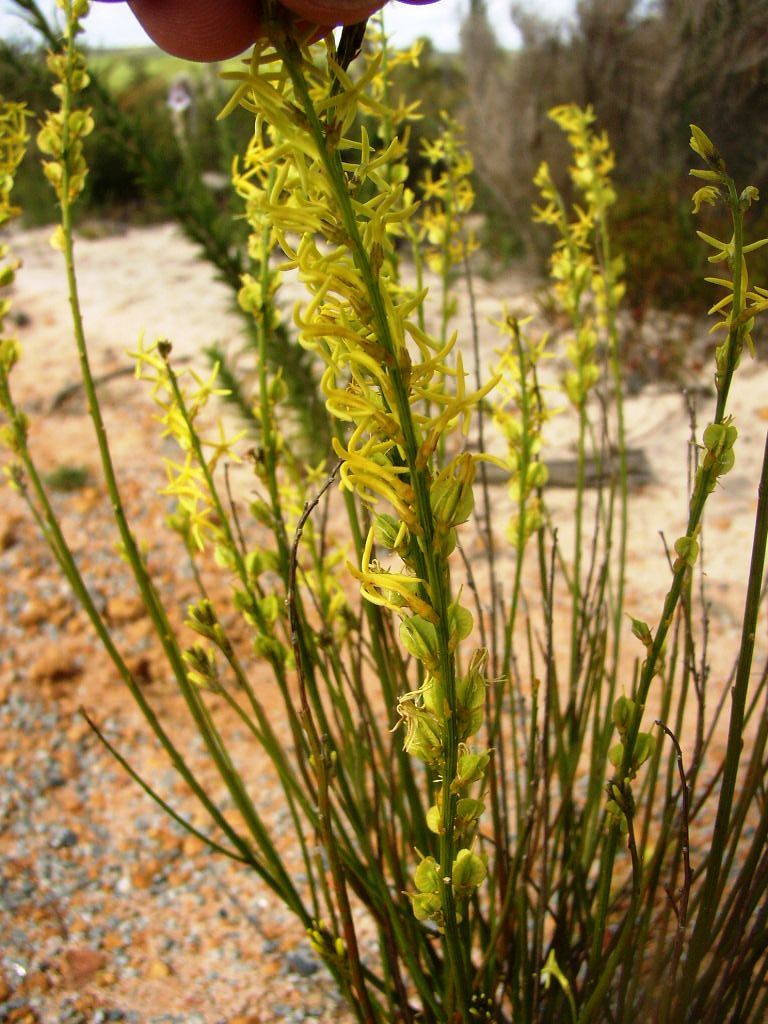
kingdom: Plantae
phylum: Tracheophyta
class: Magnoliopsida
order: Celastrales
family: Celastraceae
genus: Tripterococcus
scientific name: Tripterococcus brunonis
